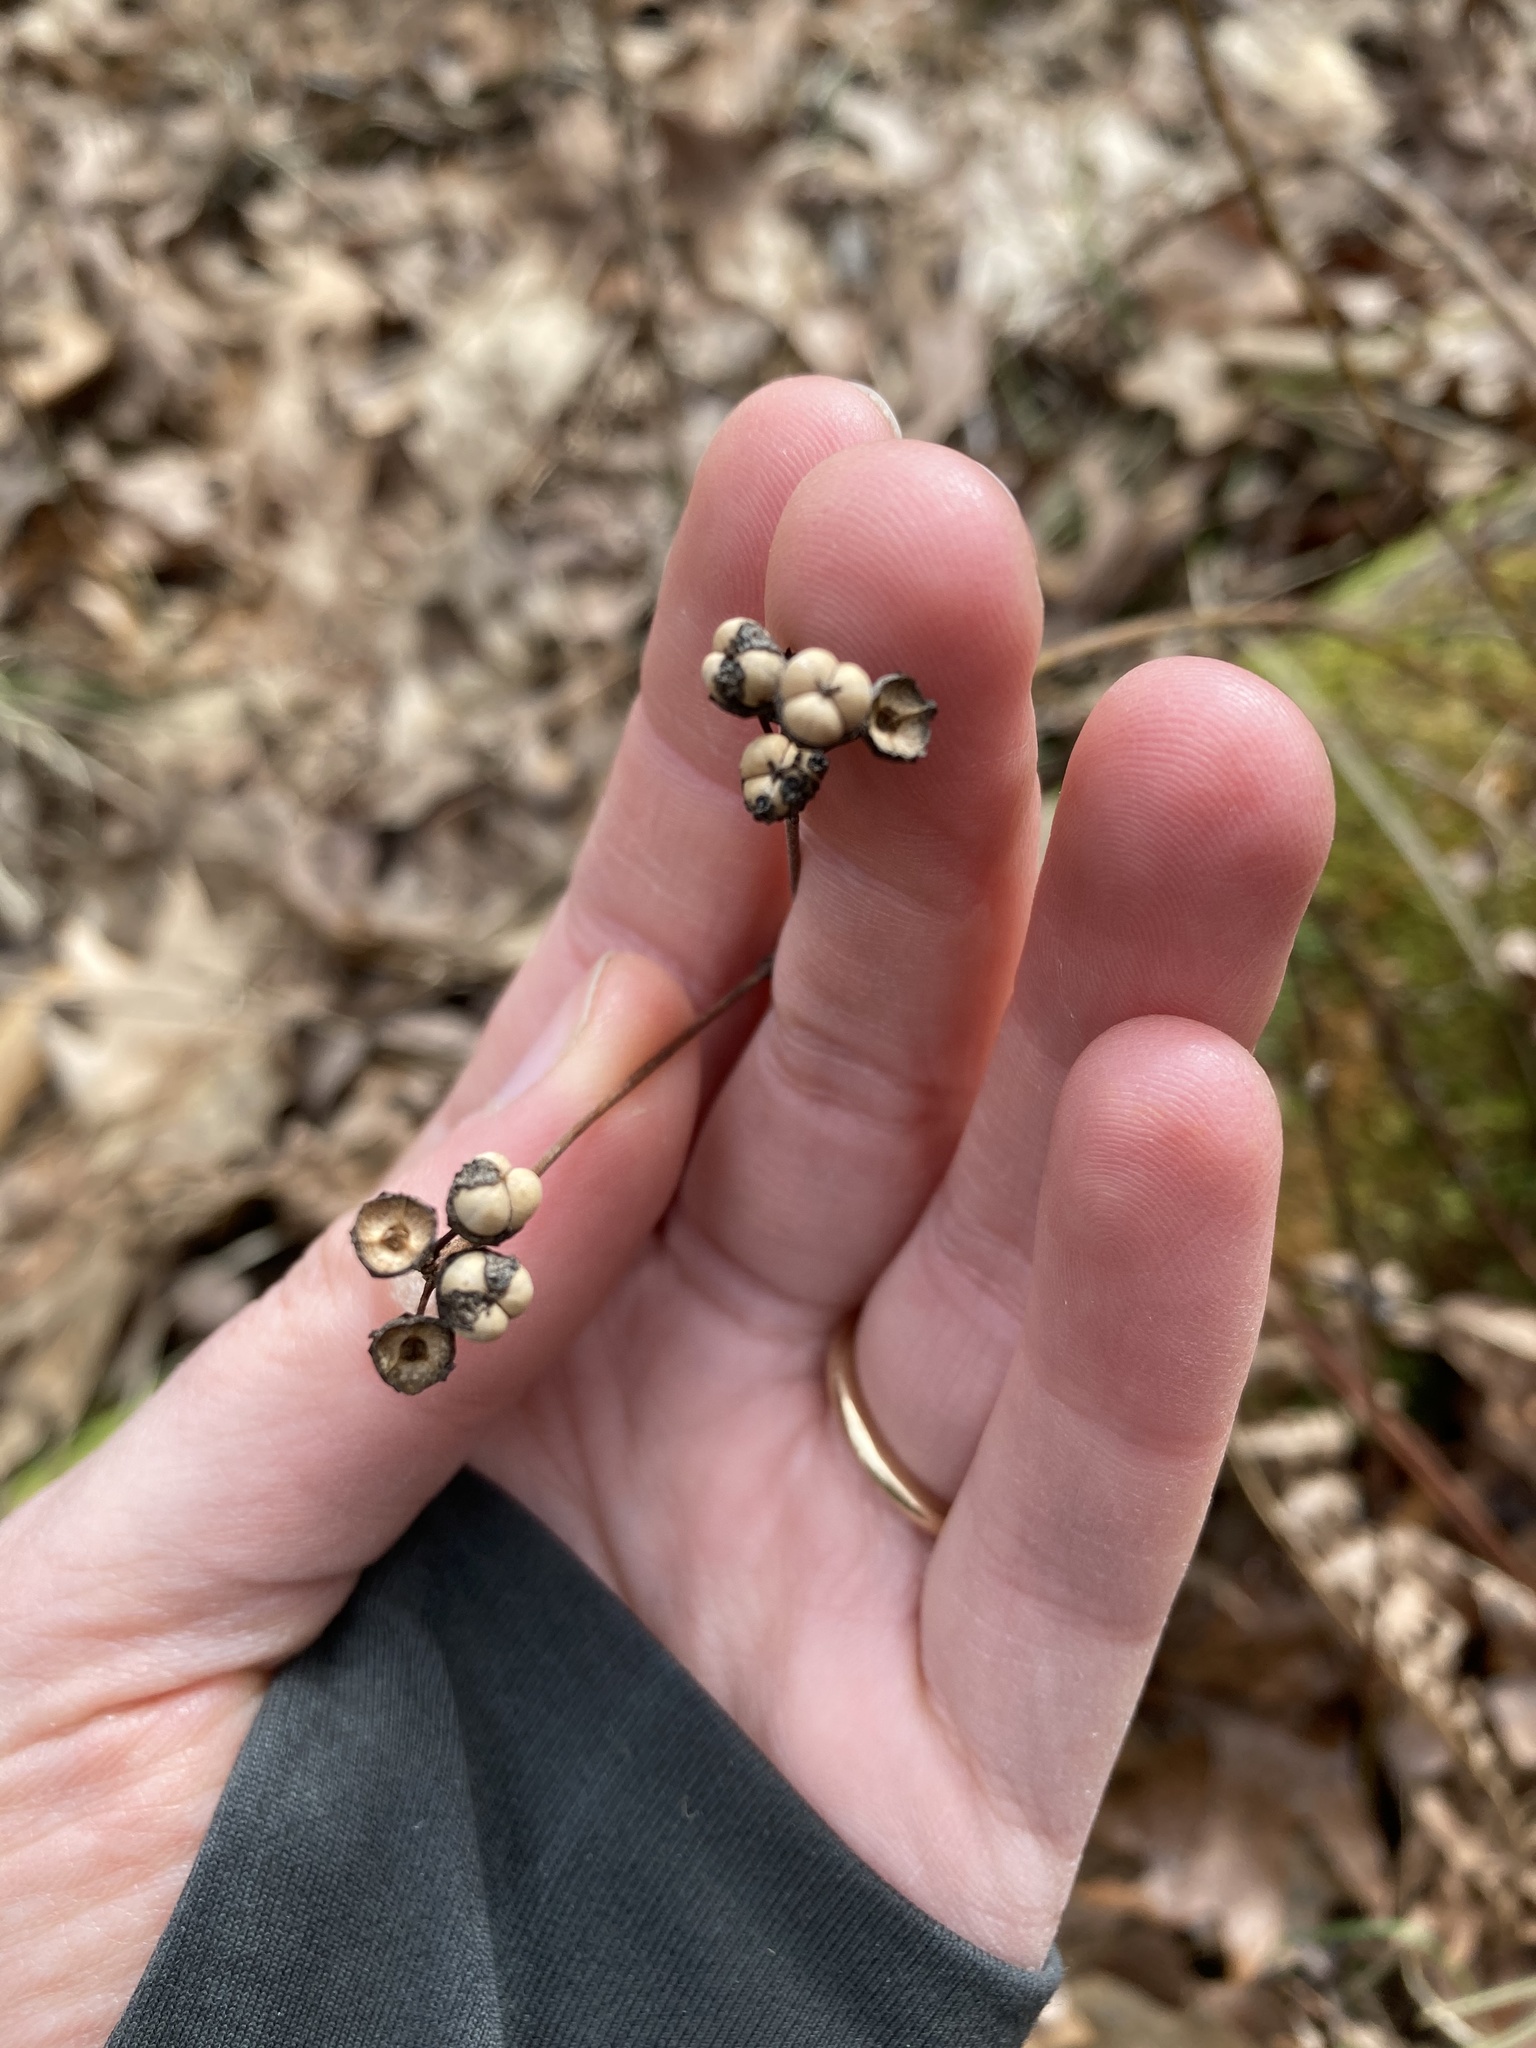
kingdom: Plantae
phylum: Tracheophyta
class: Magnoliopsida
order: Rosales
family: Rhamnaceae
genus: Ceanothus
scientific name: Ceanothus americanus
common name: Redroot
